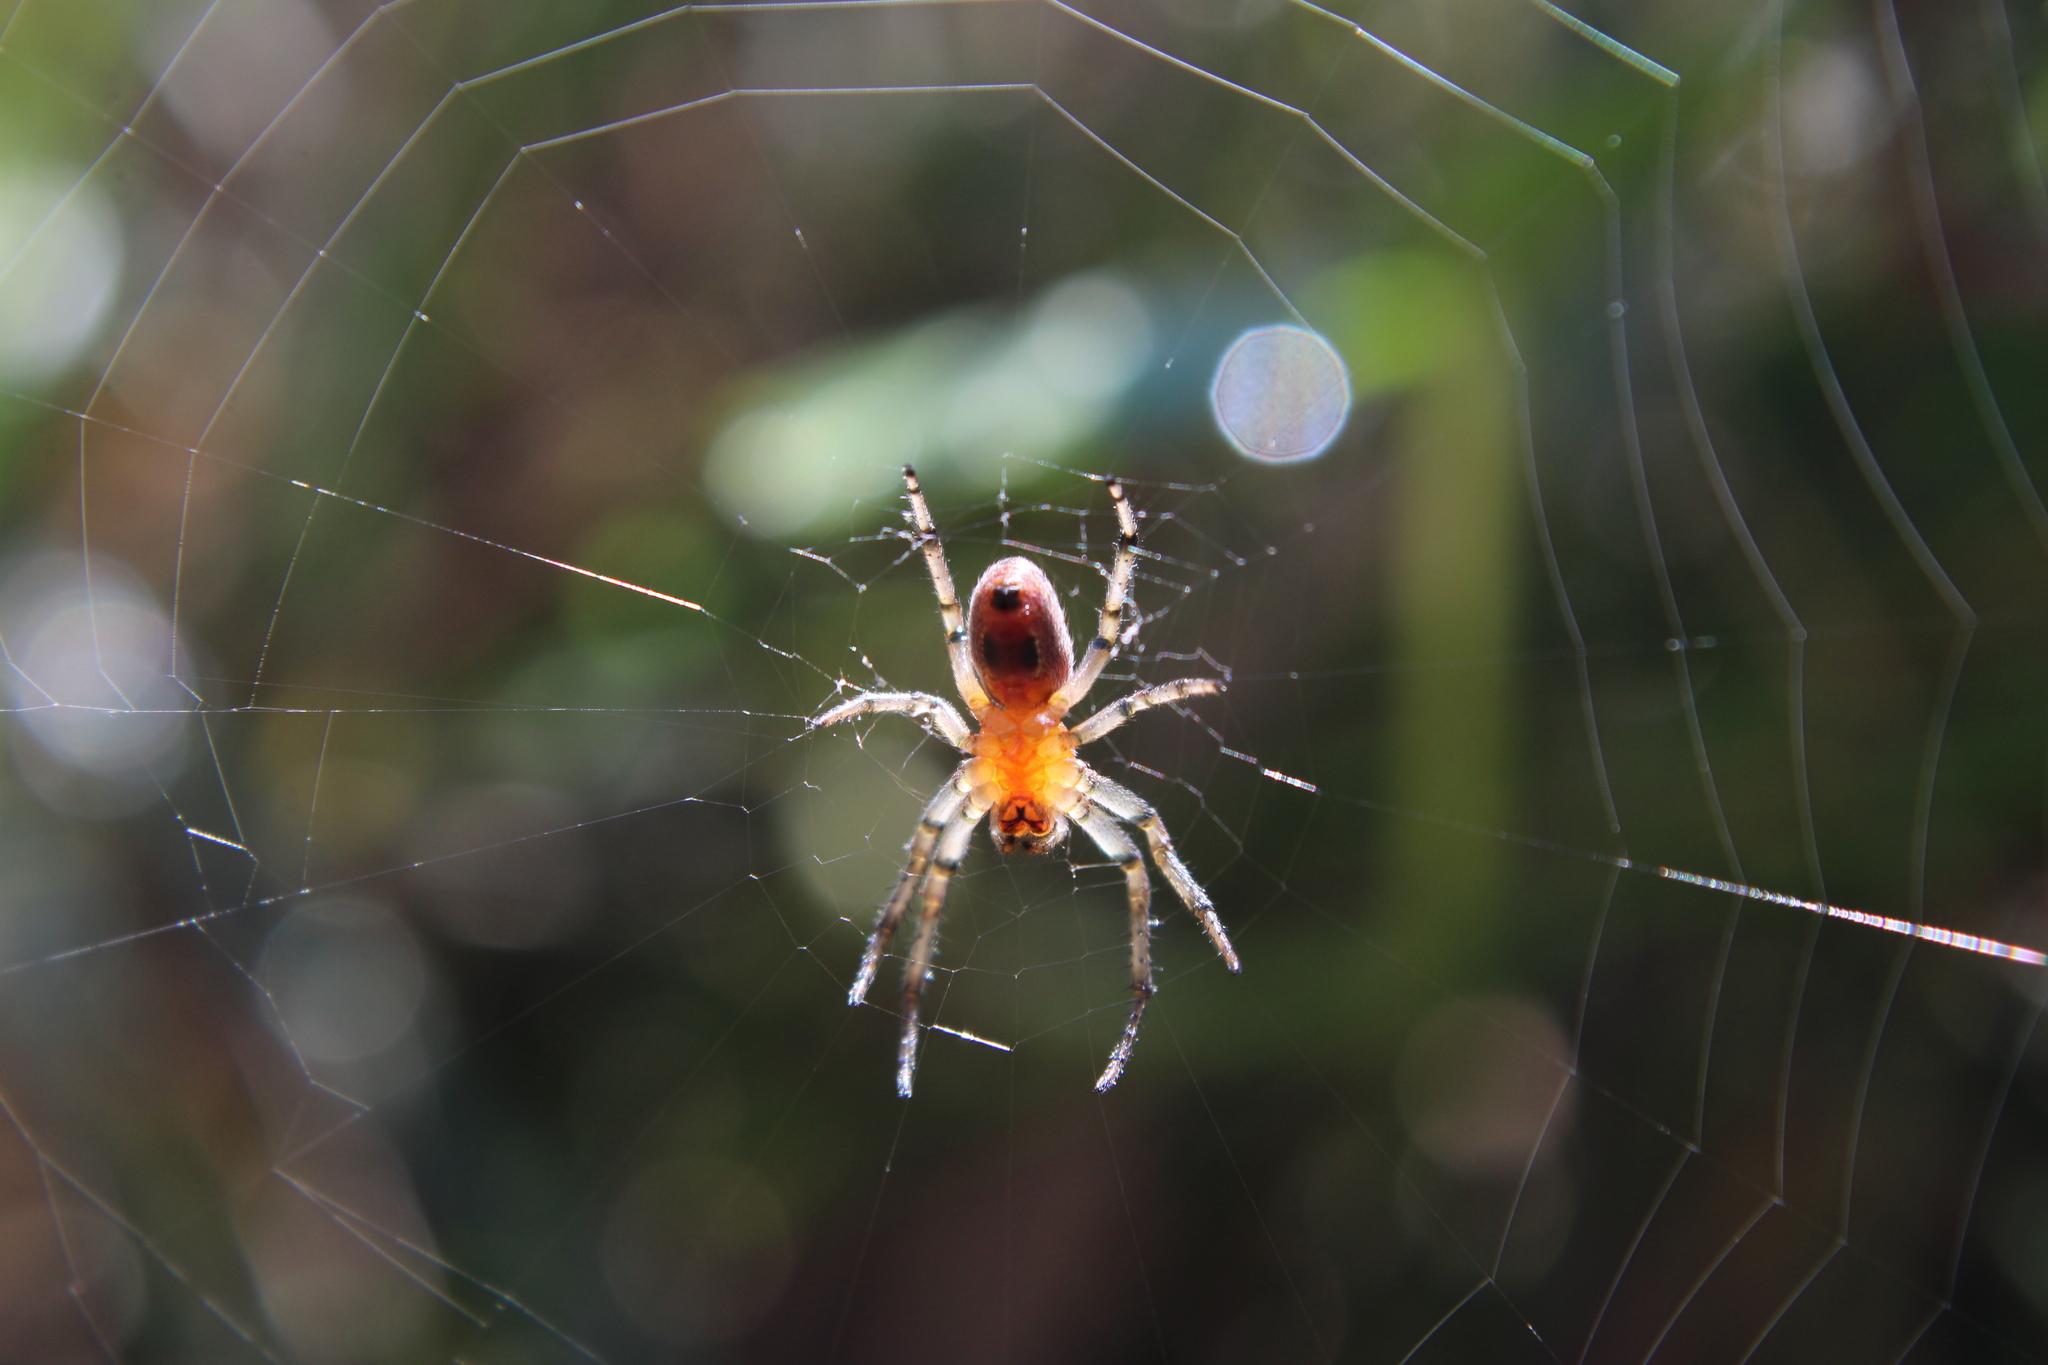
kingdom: Animalia
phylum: Arthropoda
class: Arachnida
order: Araneae
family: Araneidae
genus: Alpaida
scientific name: Alpaida veniliae
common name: Orb weavers
